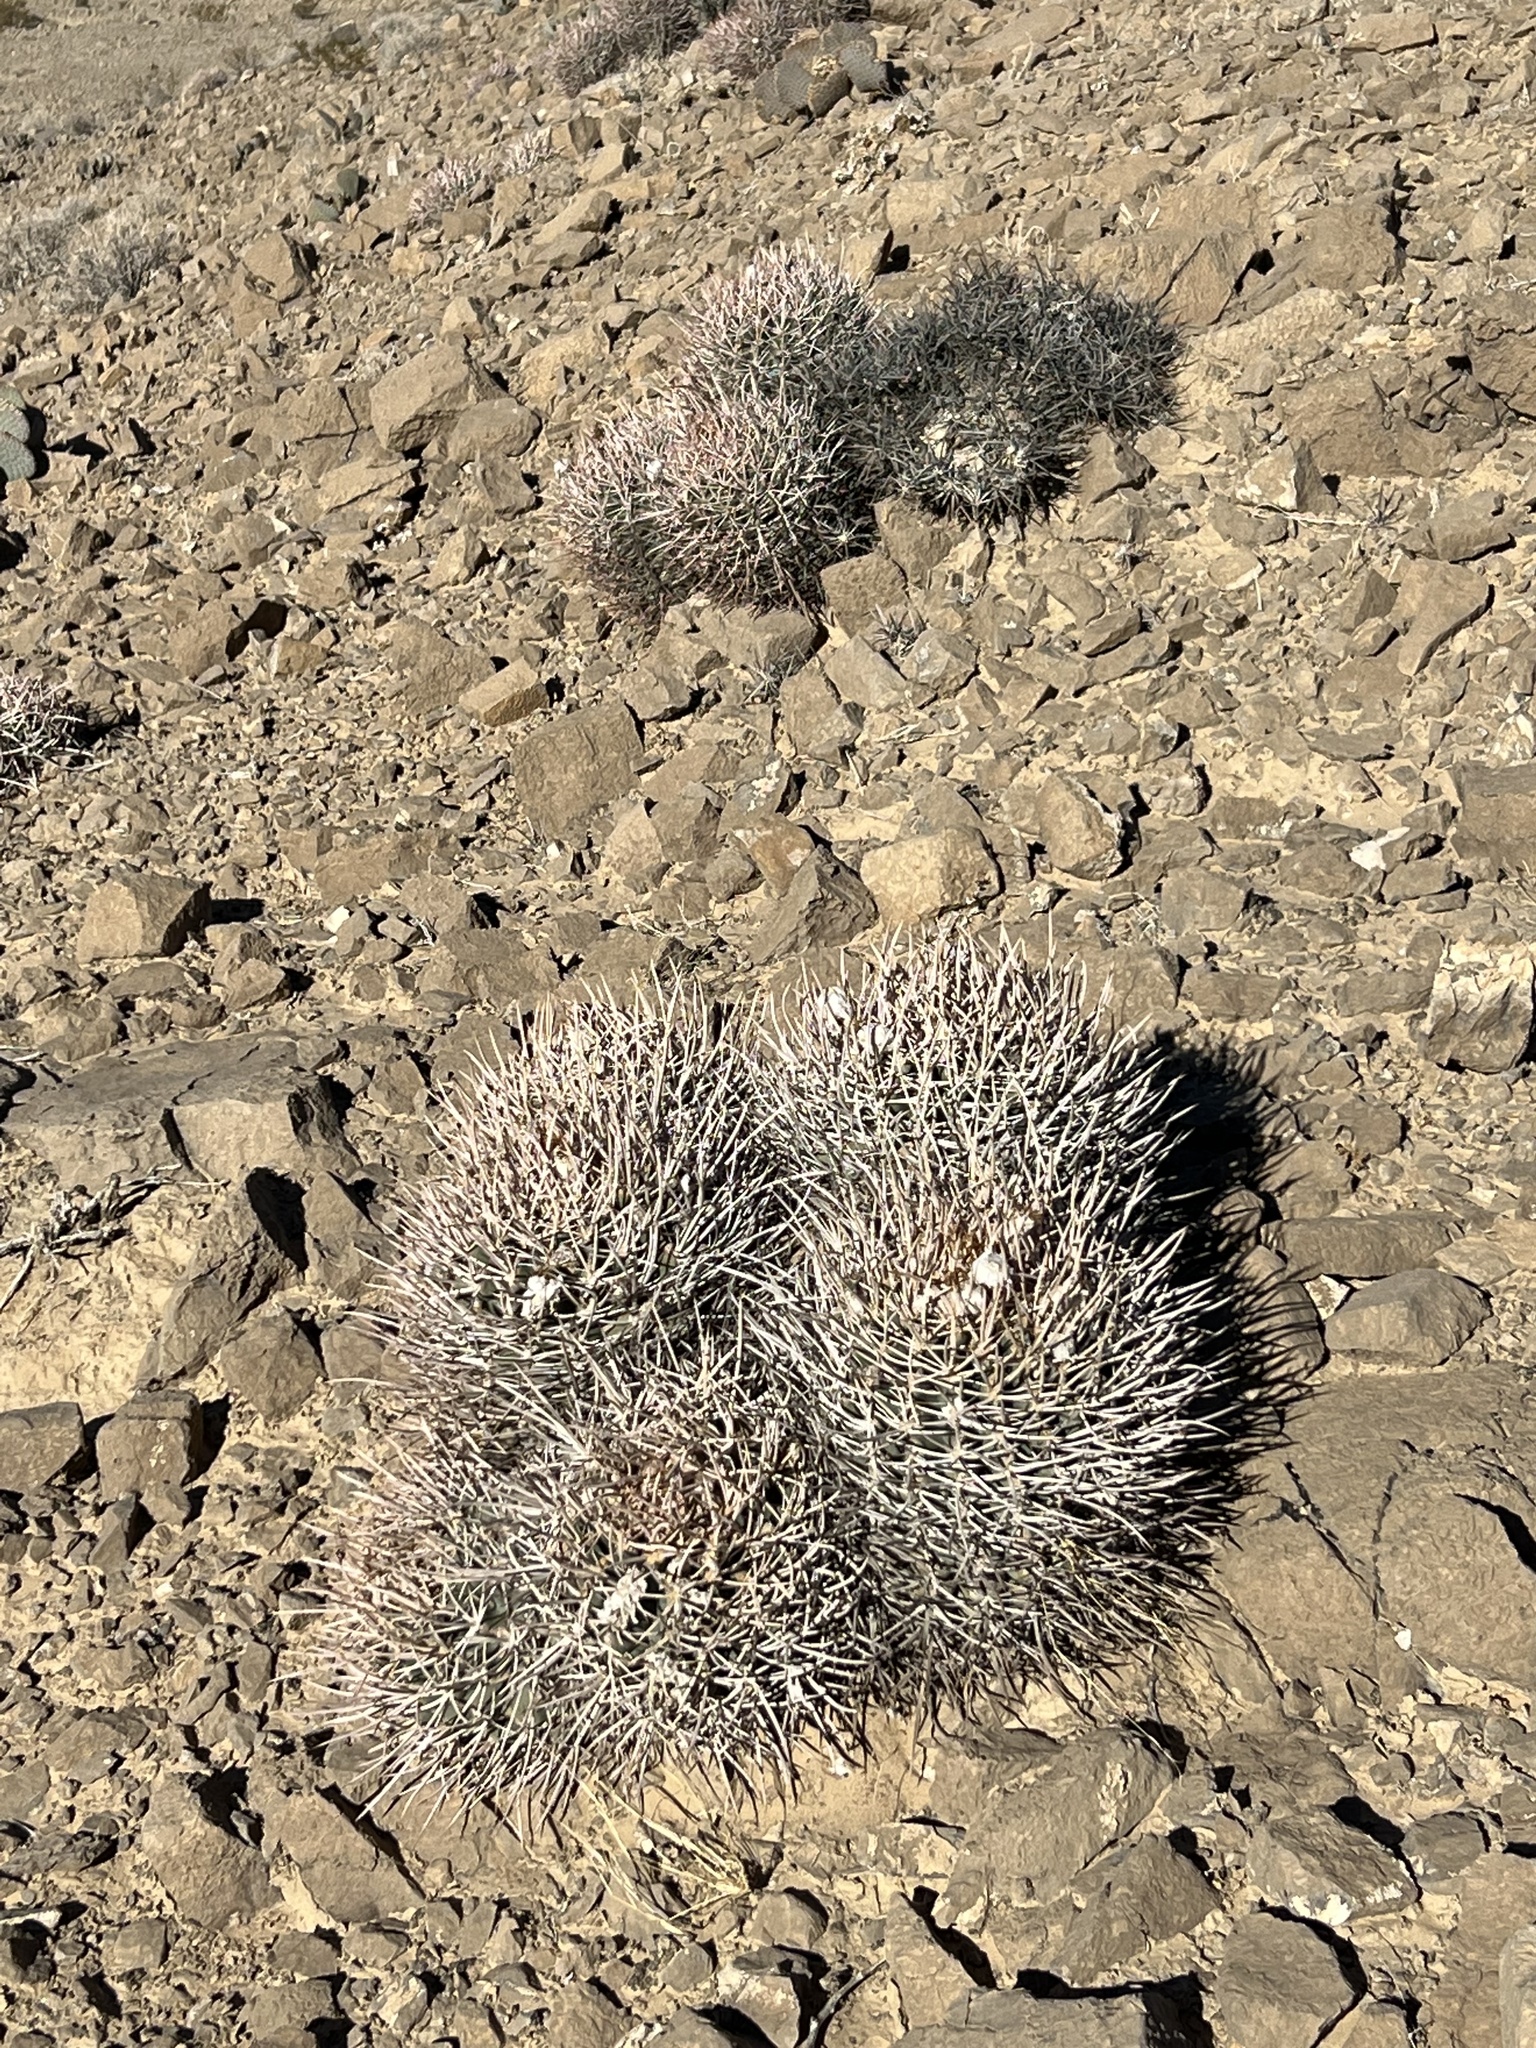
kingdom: Plantae
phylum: Tracheophyta
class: Magnoliopsida
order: Caryophyllales
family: Cactaceae
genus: Echinocactus
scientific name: Echinocactus polycephalus
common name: Cottontop cactus
